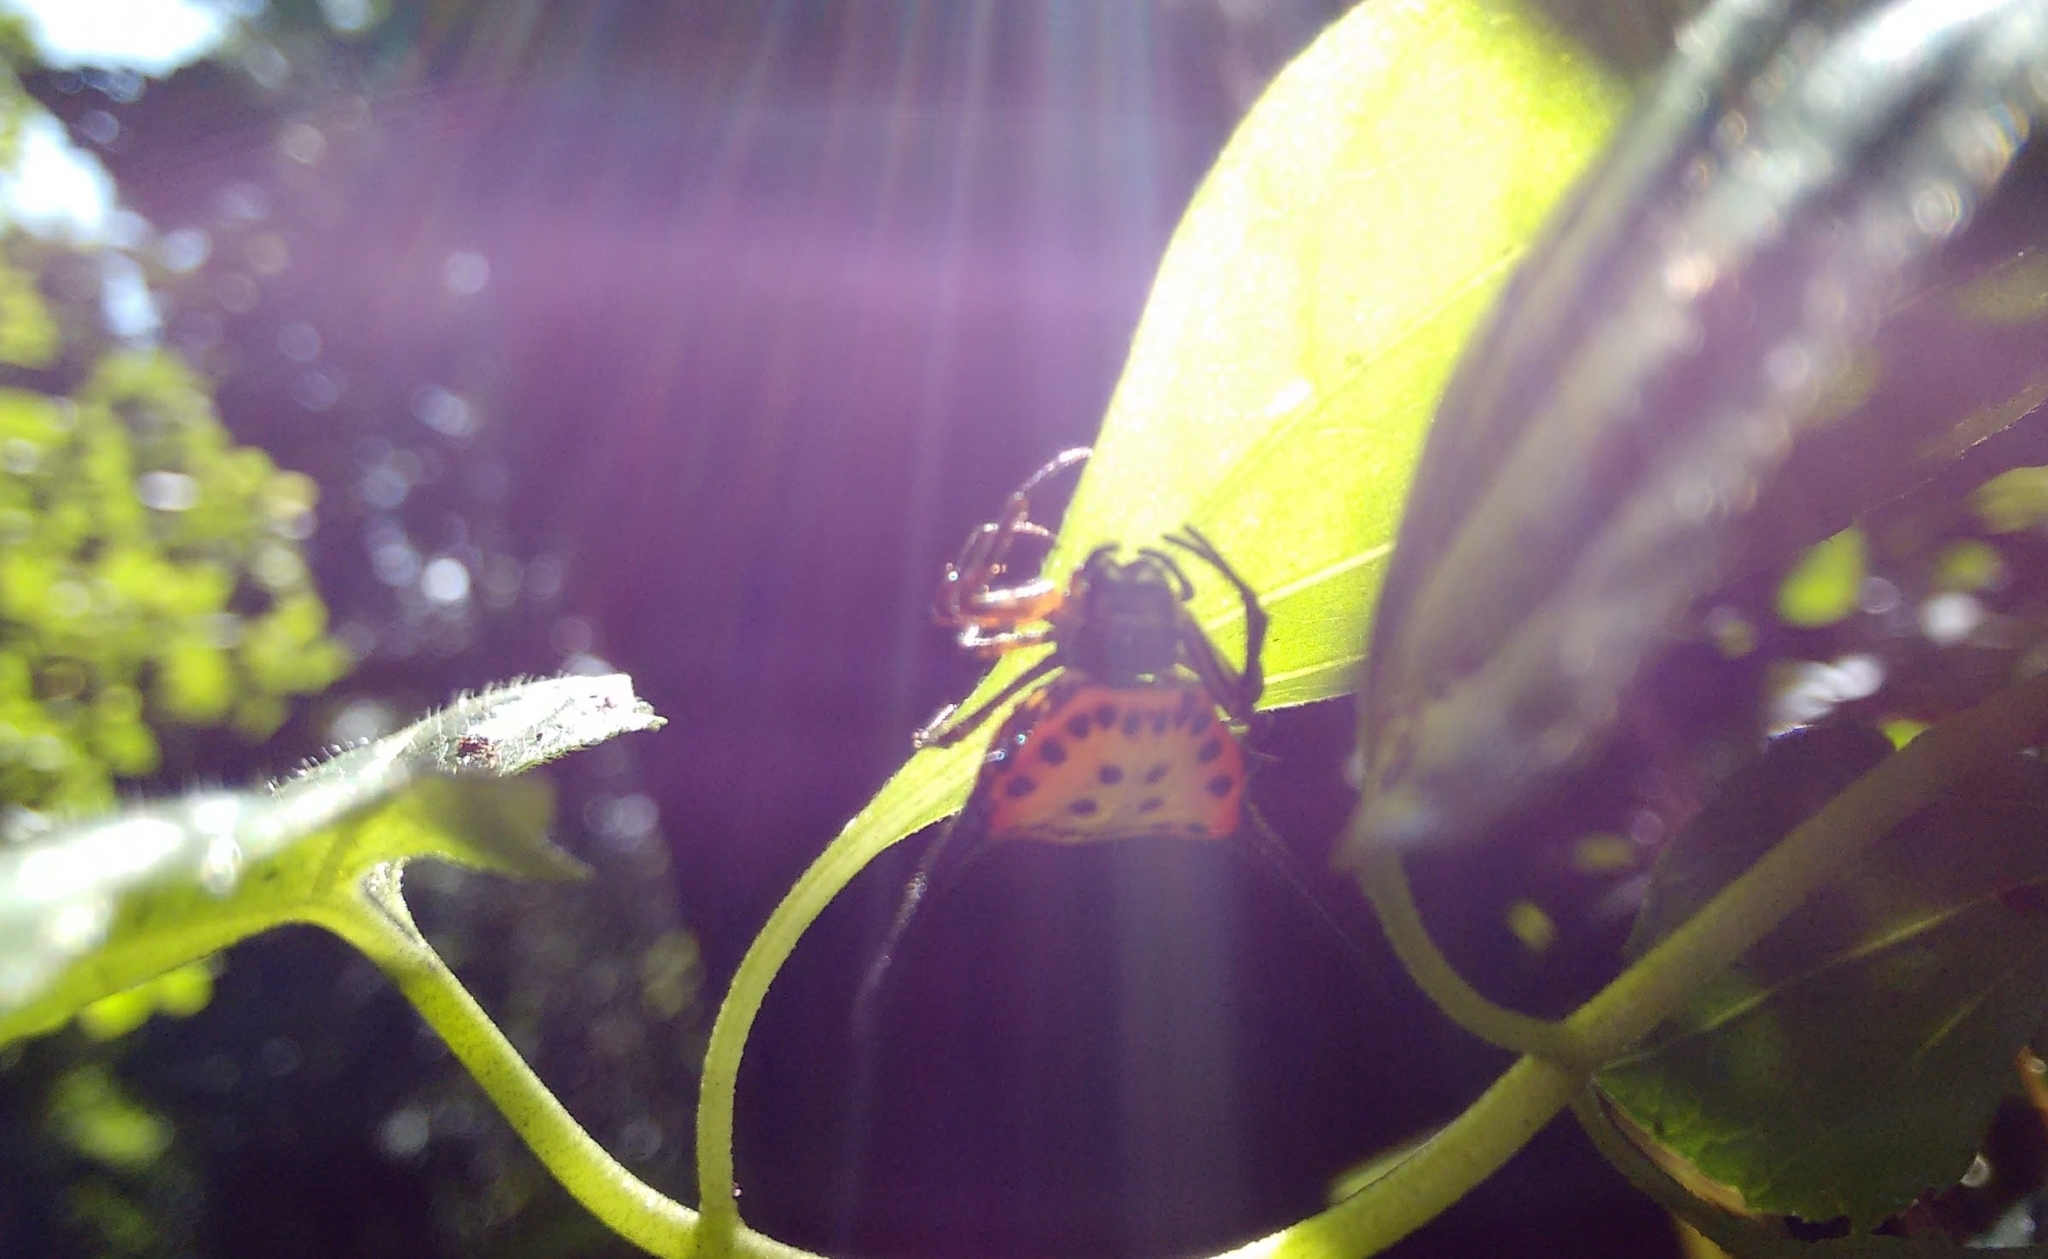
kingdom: Animalia
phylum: Arthropoda
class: Arachnida
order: Araneae
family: Araneidae
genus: Gasteracantha
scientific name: Gasteracantha dalyi
